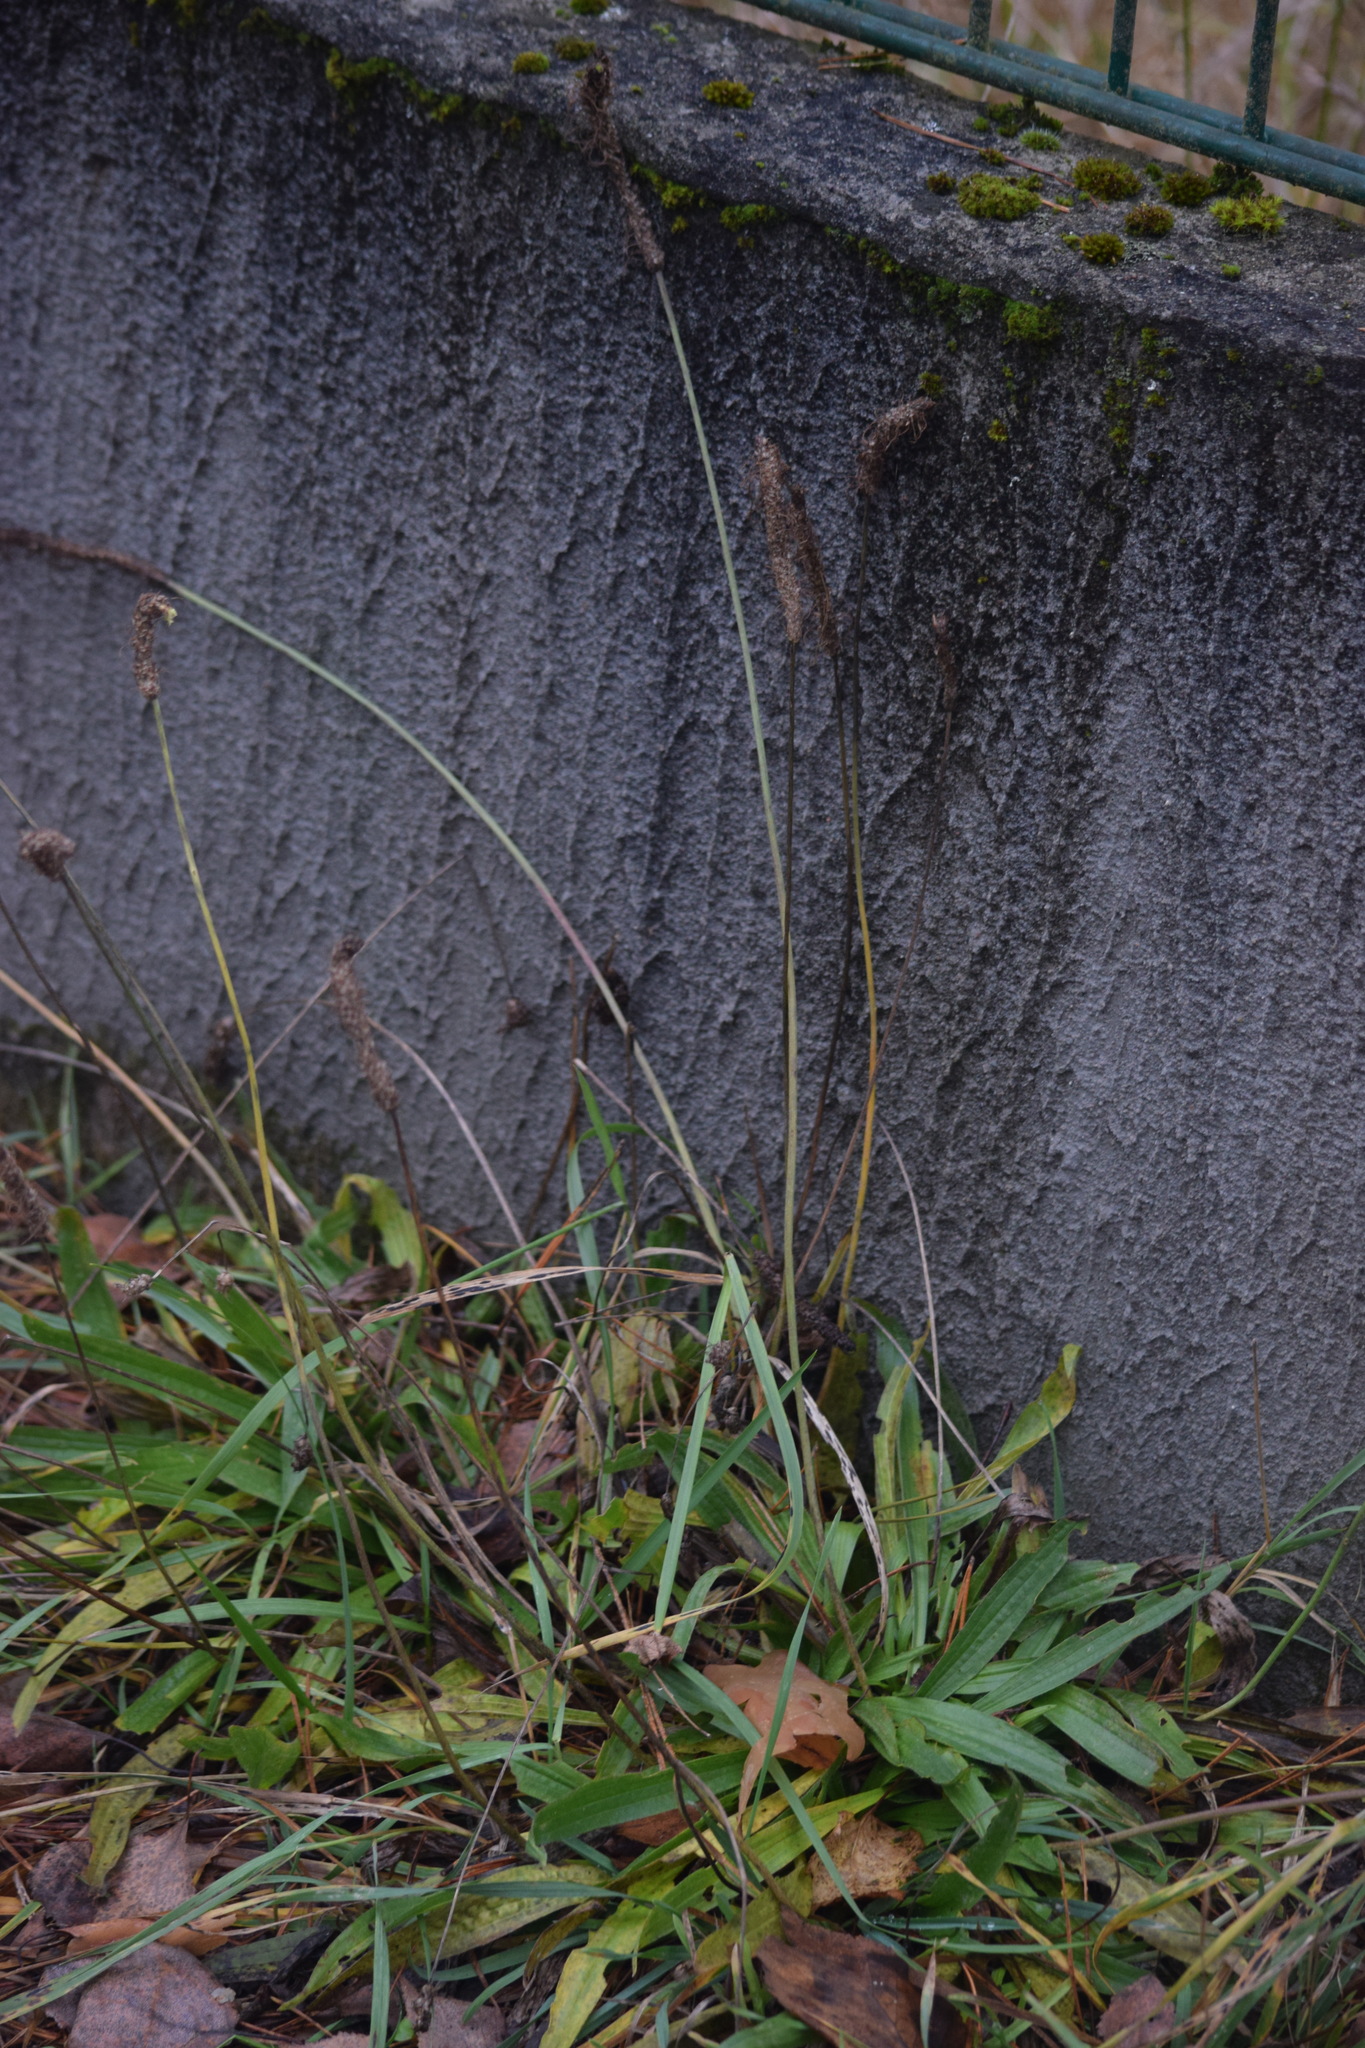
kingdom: Plantae
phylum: Tracheophyta
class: Magnoliopsida
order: Lamiales
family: Plantaginaceae
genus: Plantago
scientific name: Plantago lanceolata
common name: Ribwort plantain
